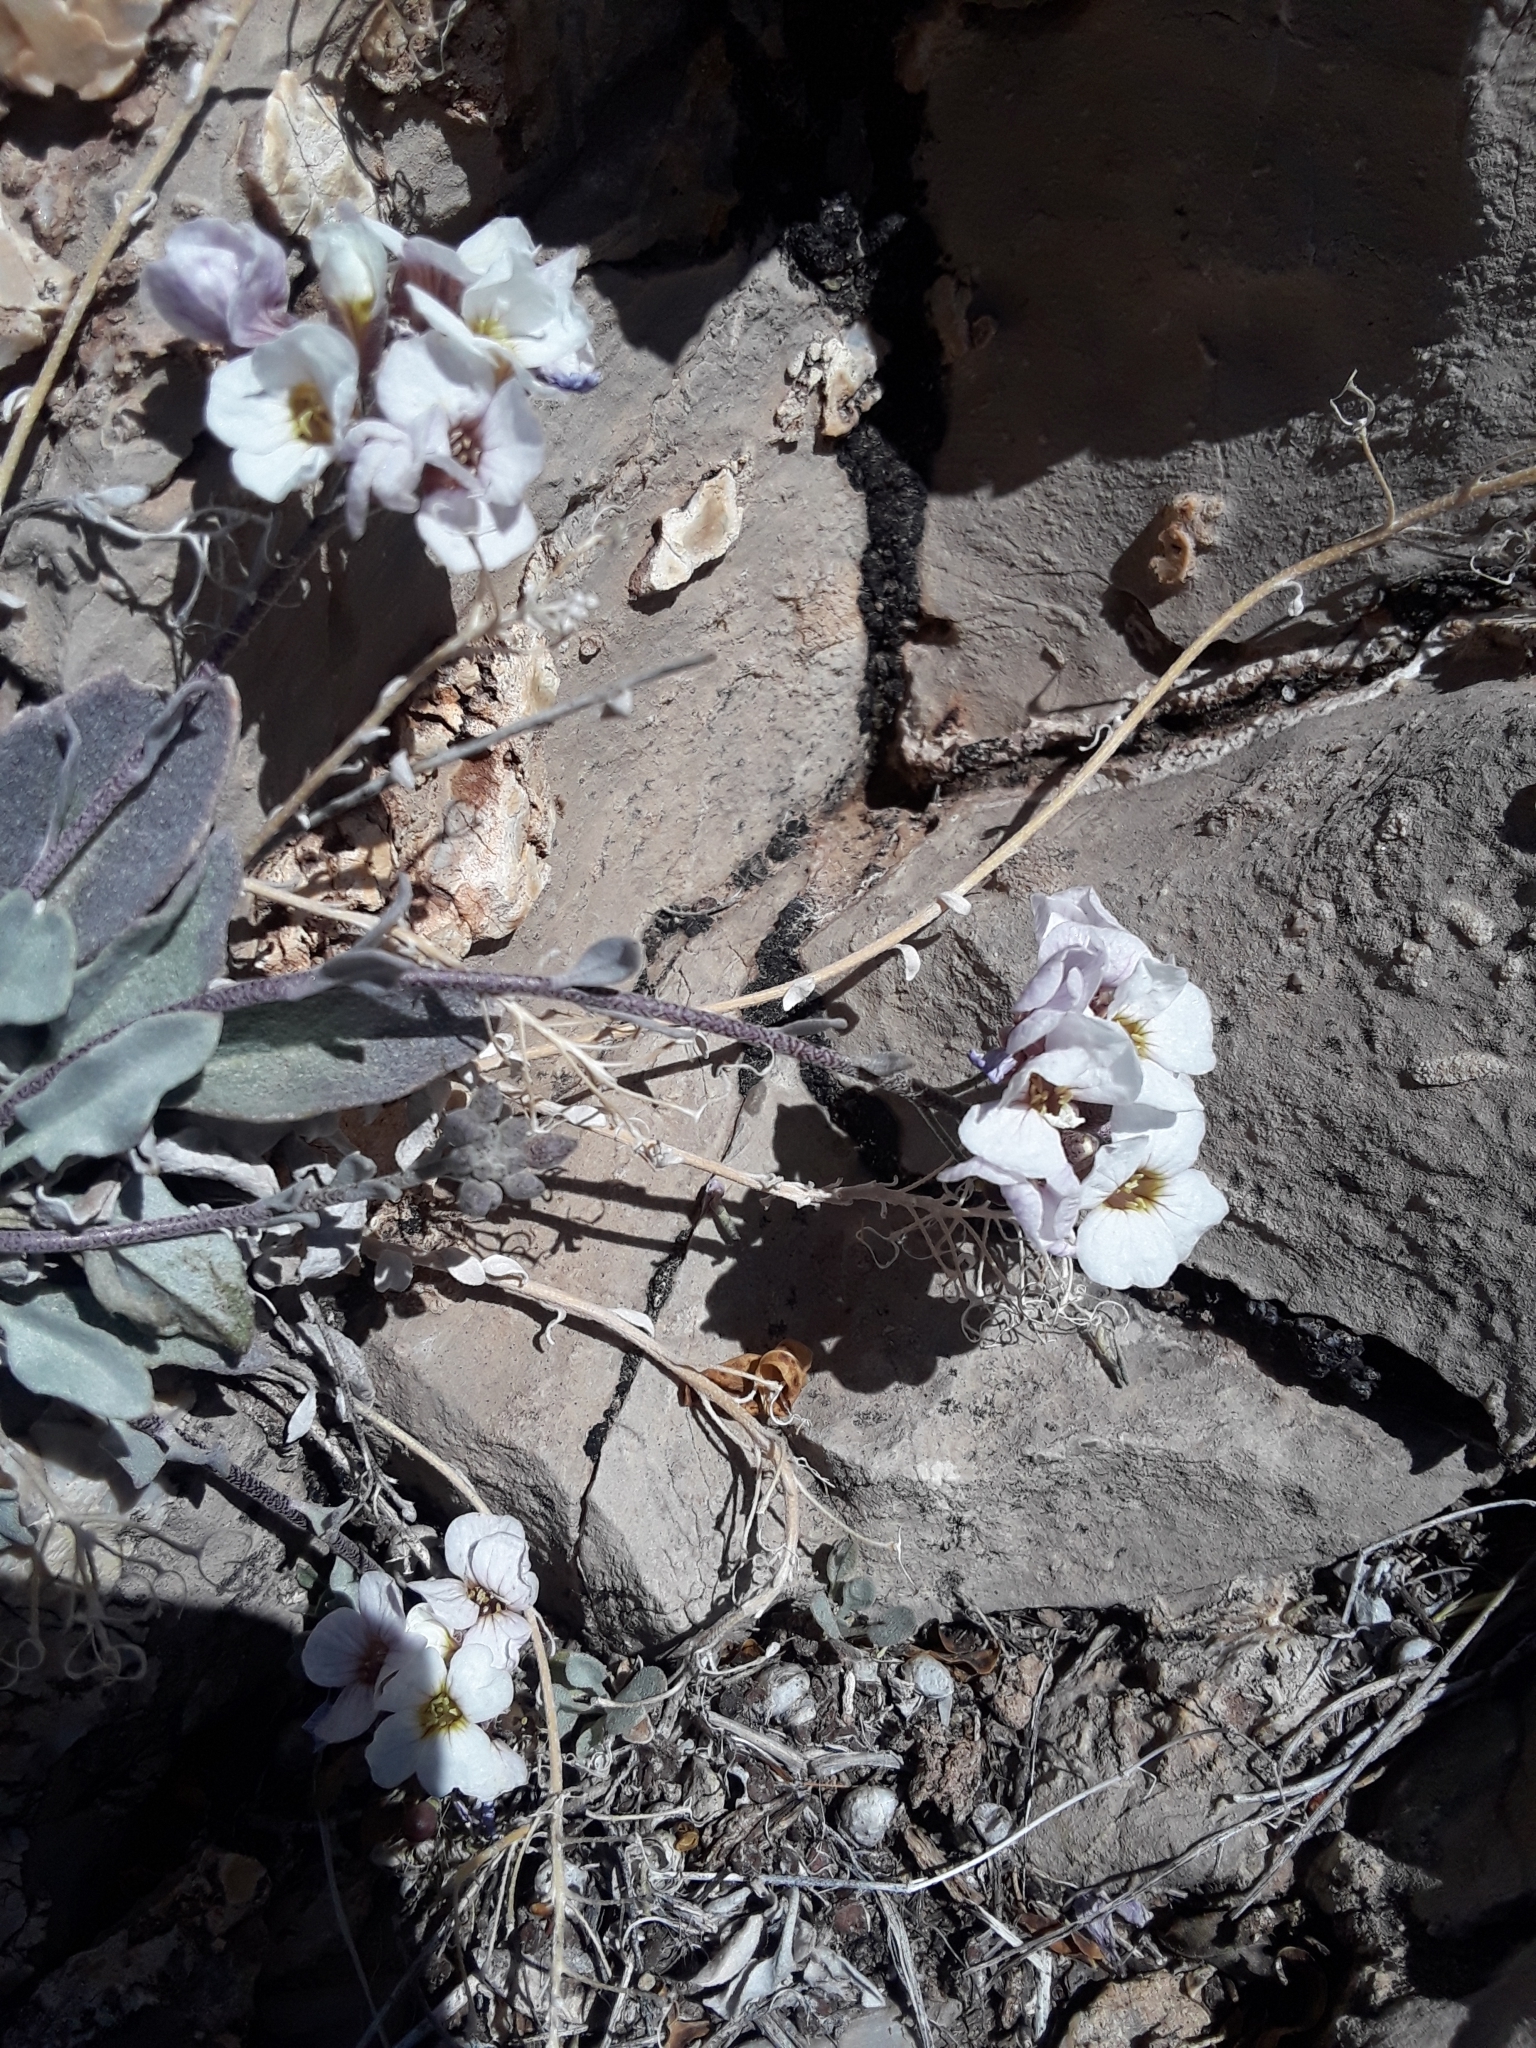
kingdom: Plantae
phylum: Tracheophyta
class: Magnoliopsida
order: Brassicales
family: Brassicaceae
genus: Physaria
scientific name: Physaria purpurea
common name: Rose bladderpod
